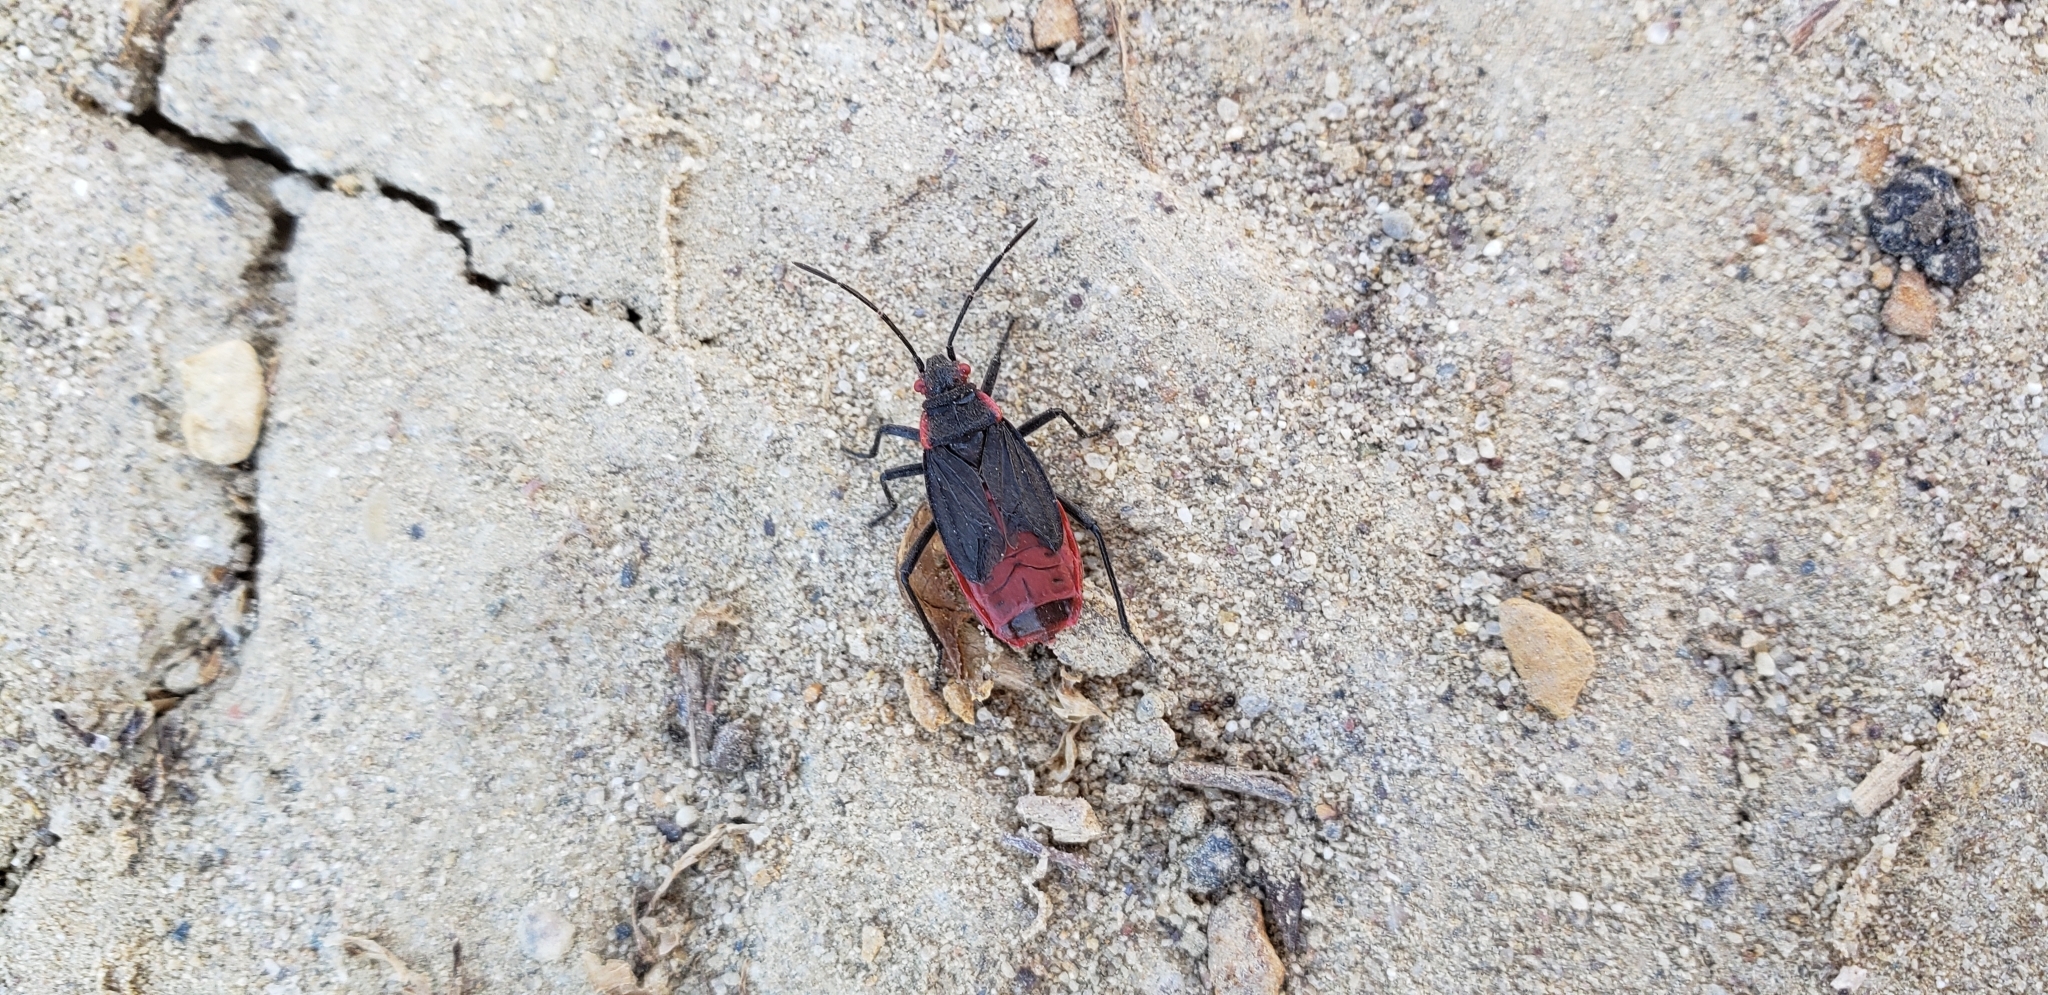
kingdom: Animalia
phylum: Arthropoda
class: Insecta
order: Hemiptera
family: Rhopalidae
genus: Jadera
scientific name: Jadera haematoloma
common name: Red-shouldered bug
